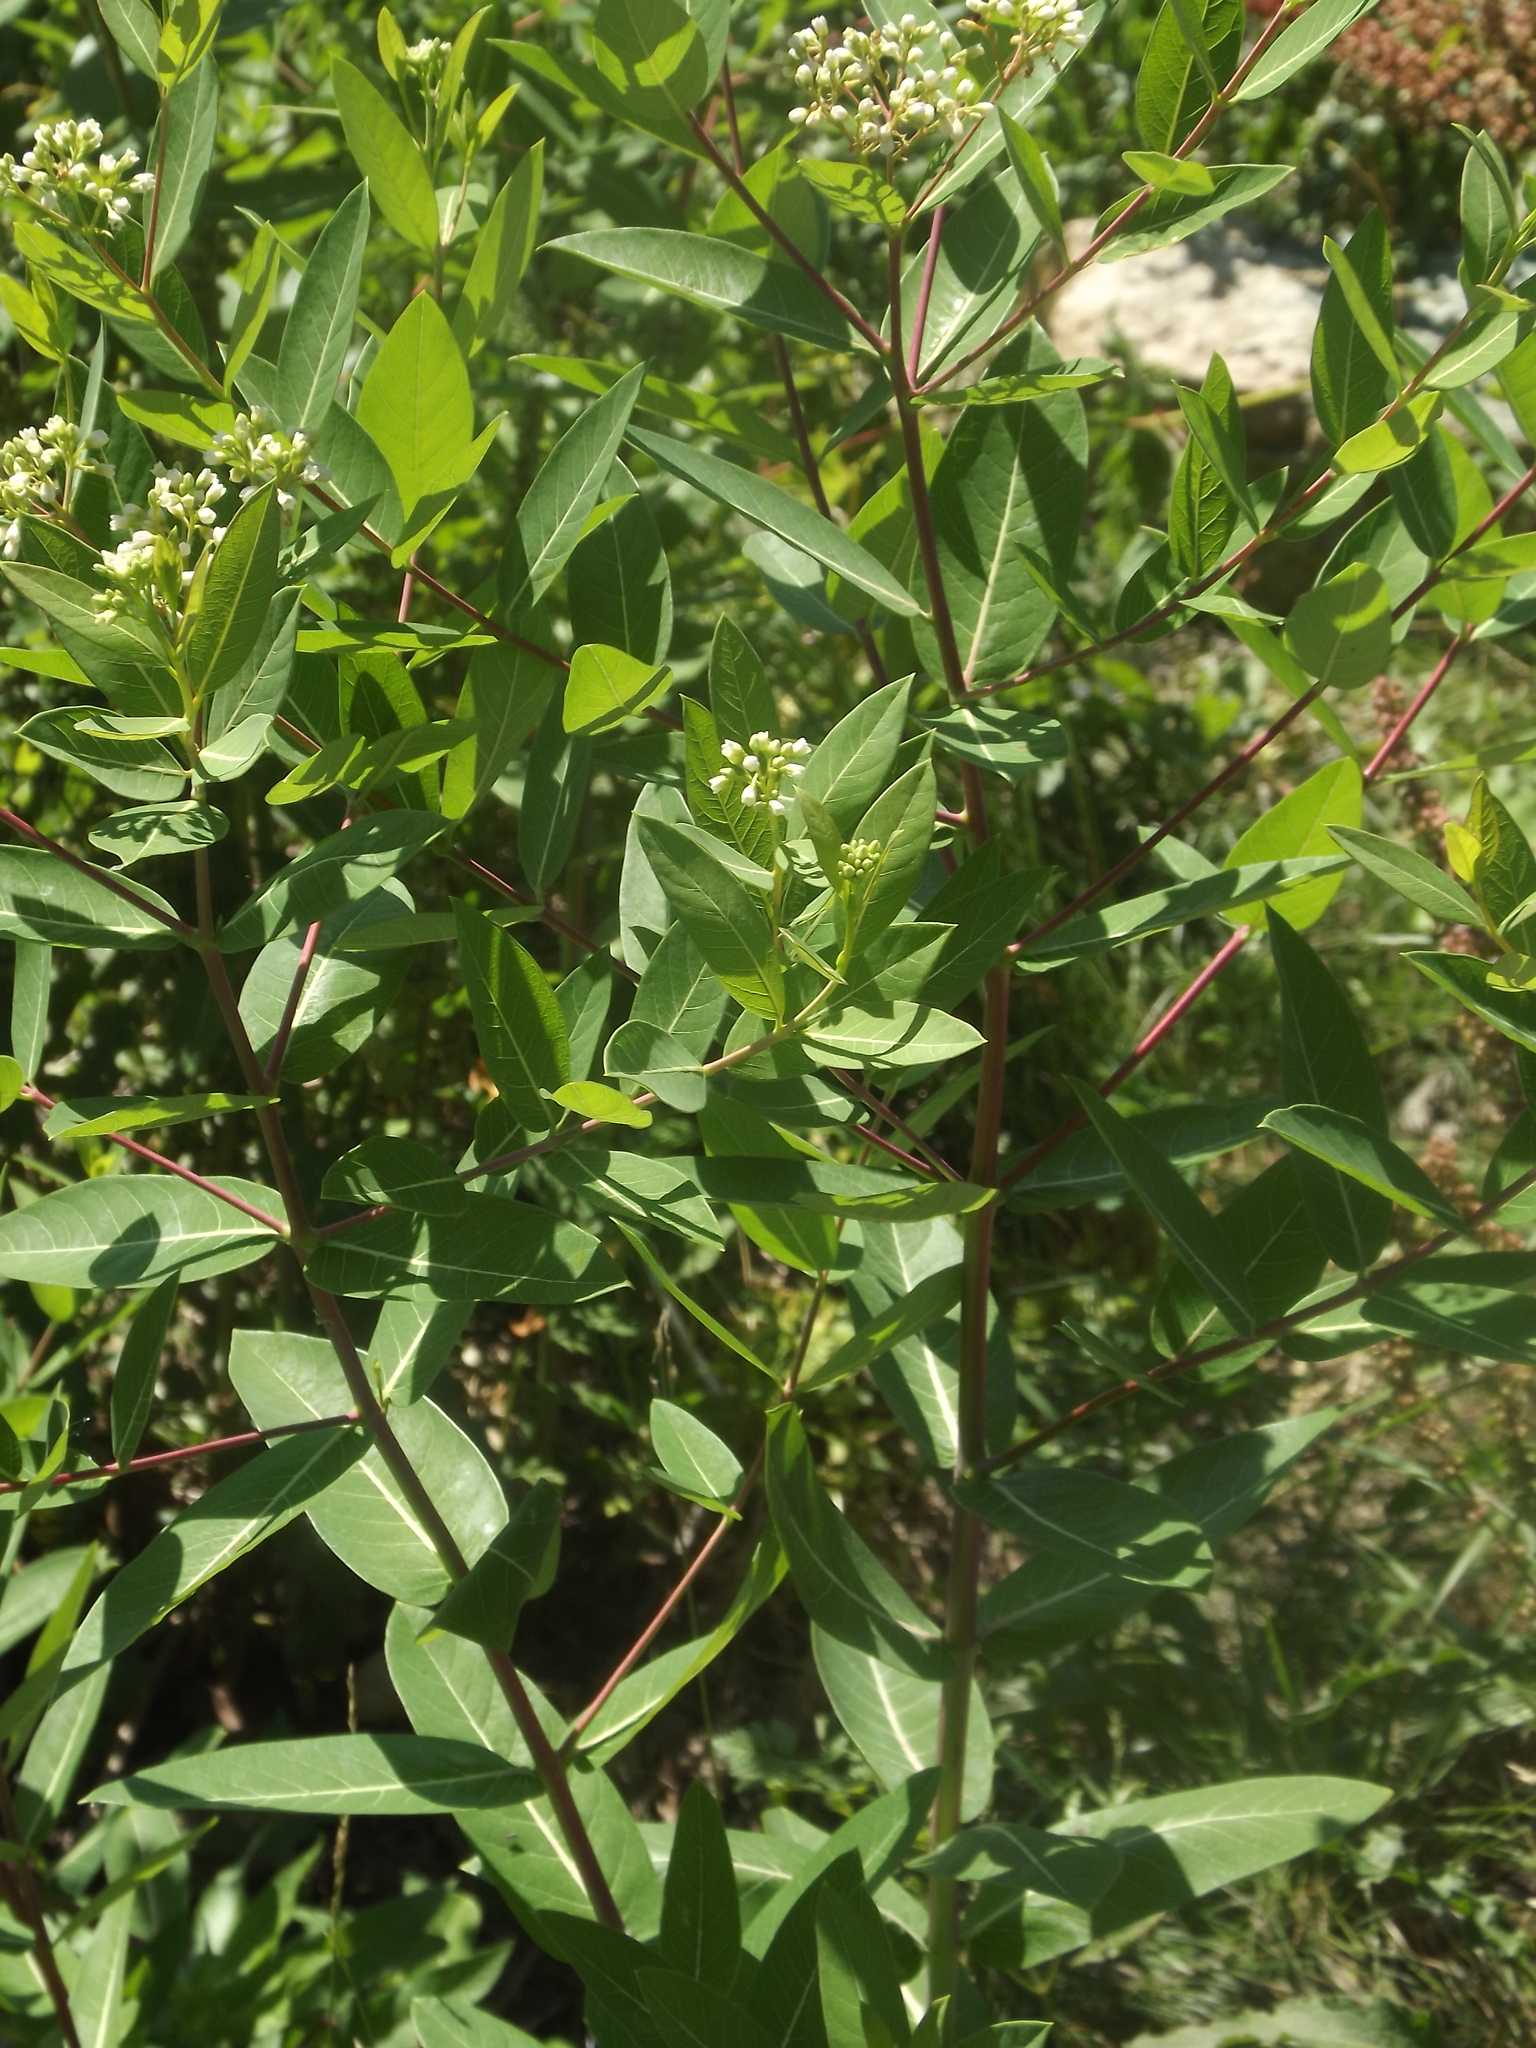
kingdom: Plantae
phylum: Tracheophyta
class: Magnoliopsida
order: Gentianales
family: Apocynaceae
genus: Apocynum
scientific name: Apocynum cannabinum
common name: Hemp dogbane
